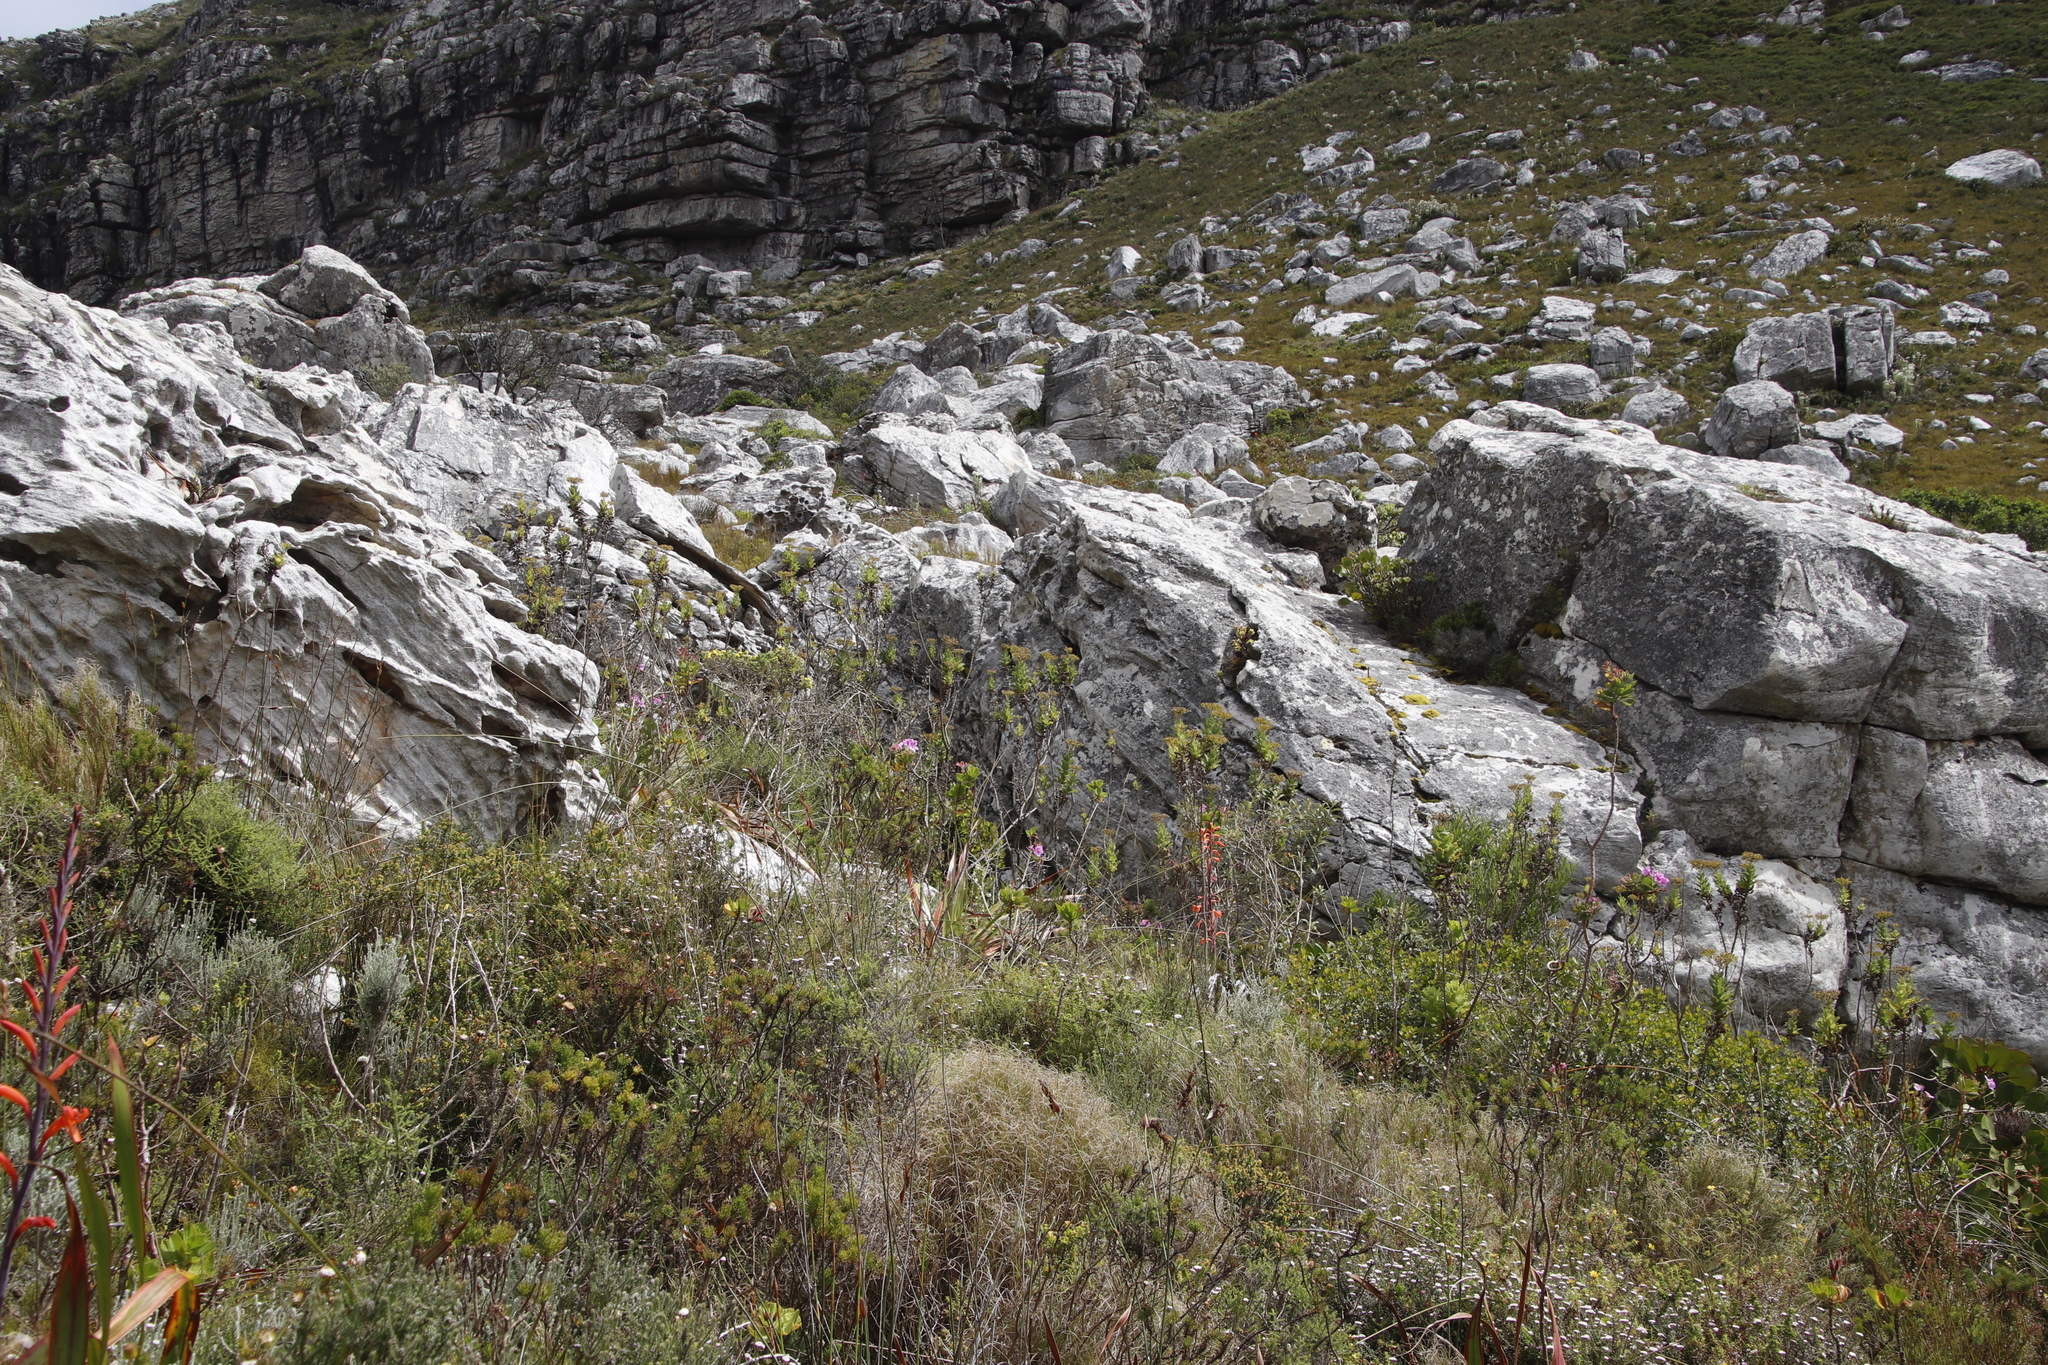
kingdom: Plantae
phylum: Tracheophyta
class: Magnoliopsida
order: Asterales
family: Asteraceae
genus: Senecio
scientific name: Senecio rigidus
